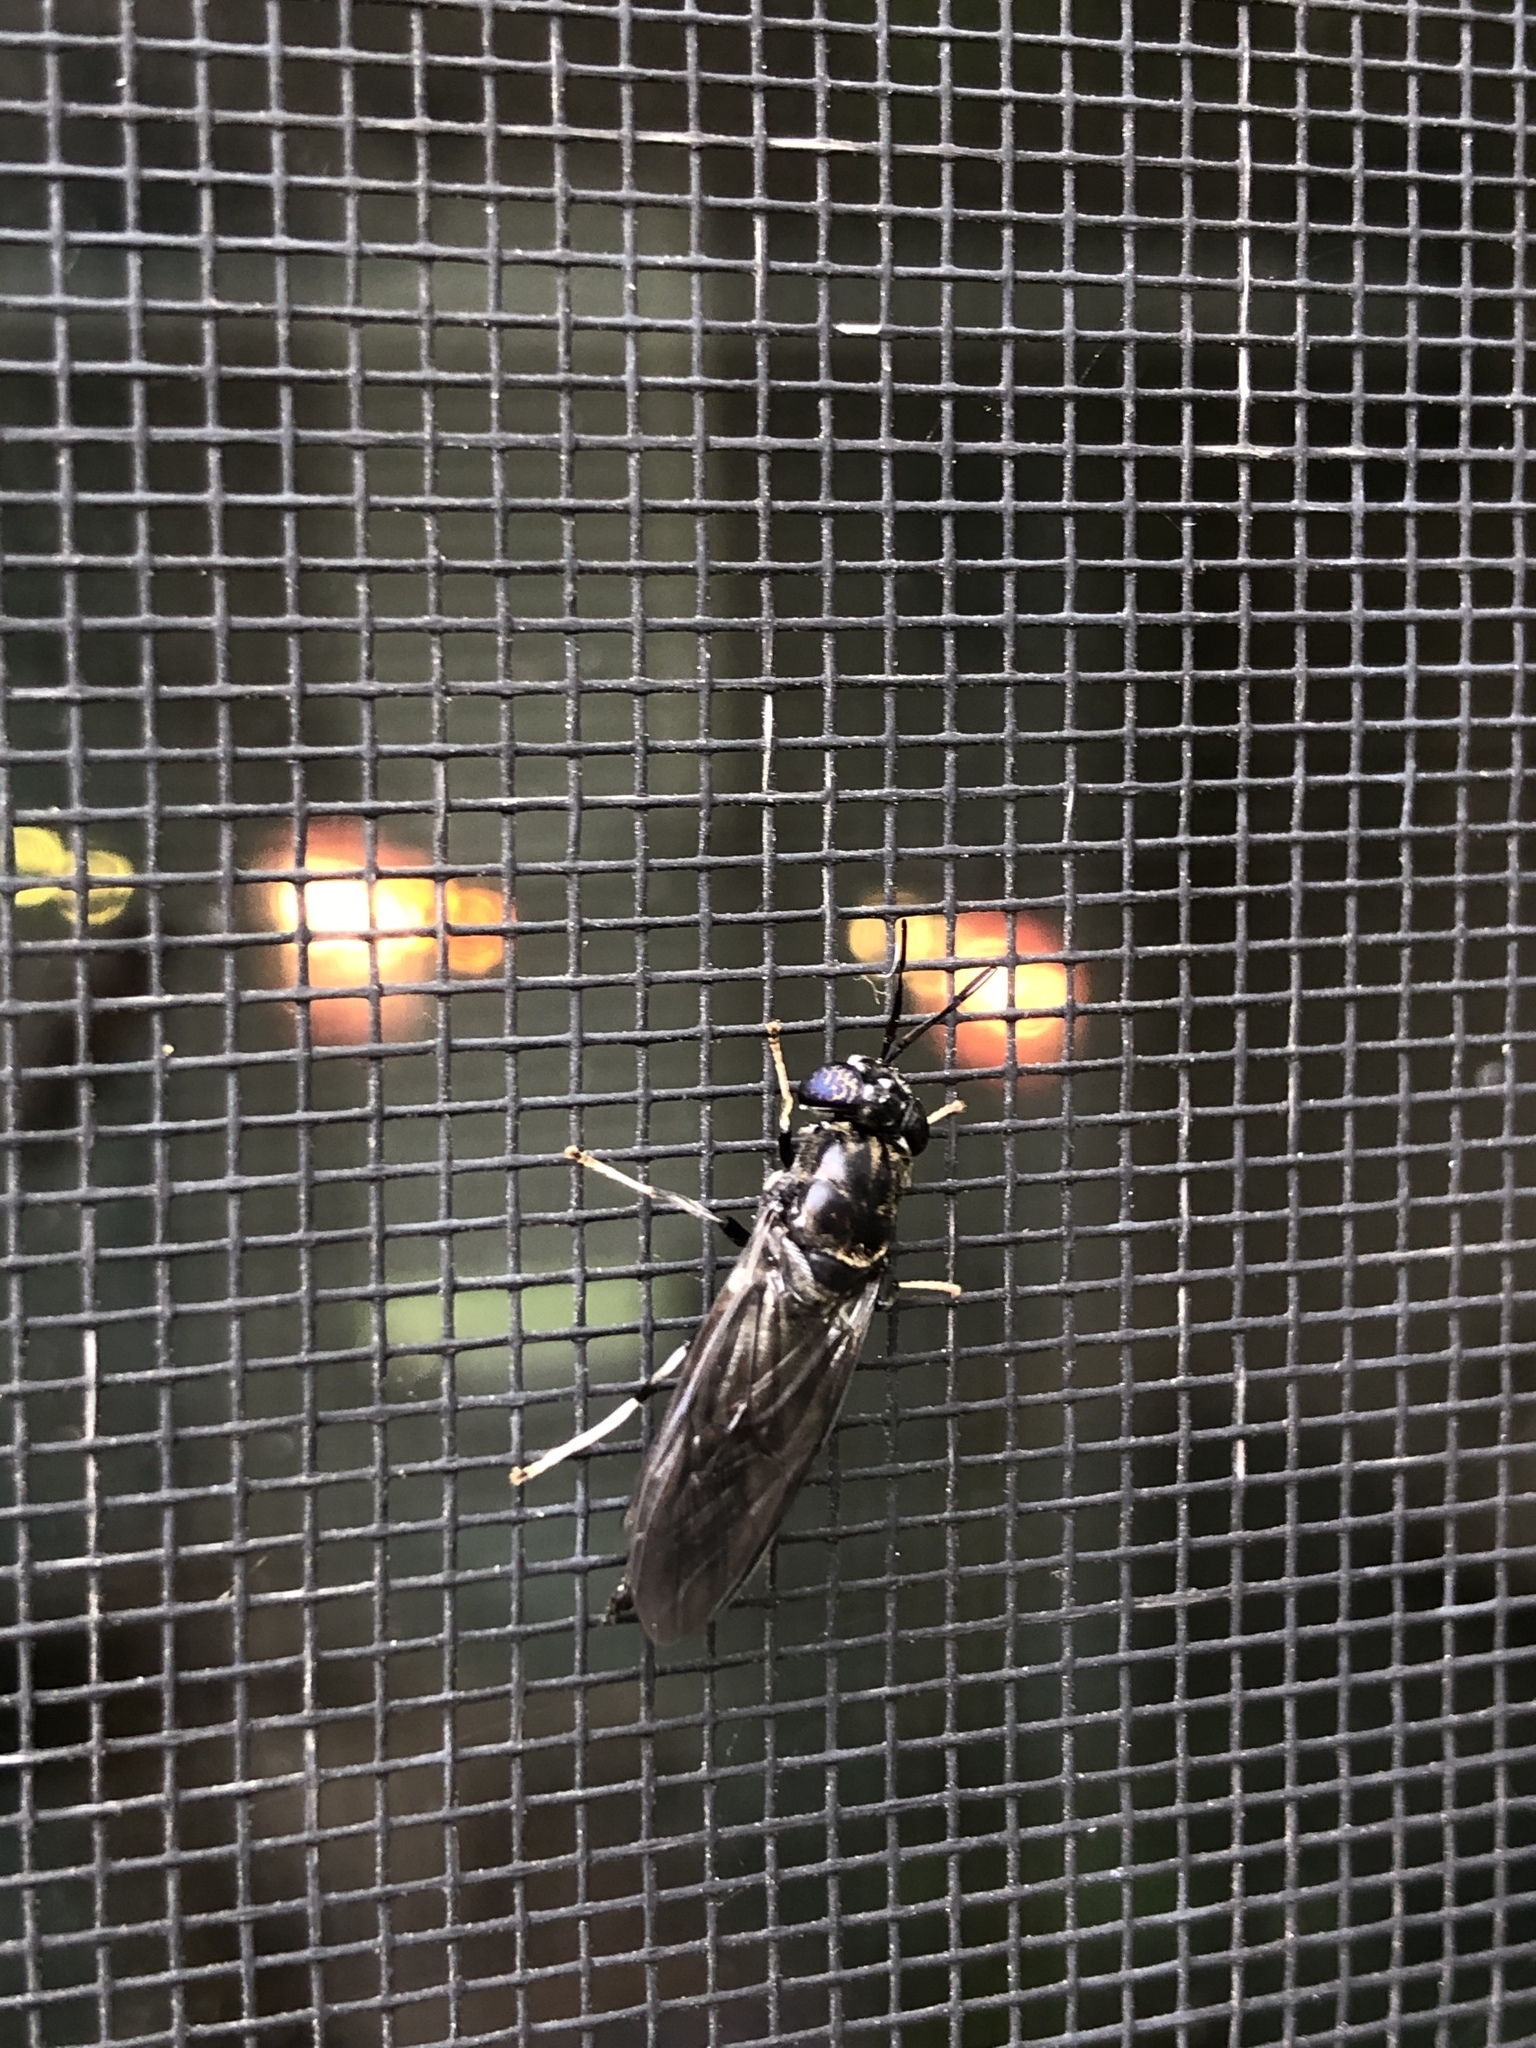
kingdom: Animalia
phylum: Arthropoda
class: Insecta
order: Diptera
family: Stratiomyidae
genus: Hermetia
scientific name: Hermetia illucens
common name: Black soldier fly
